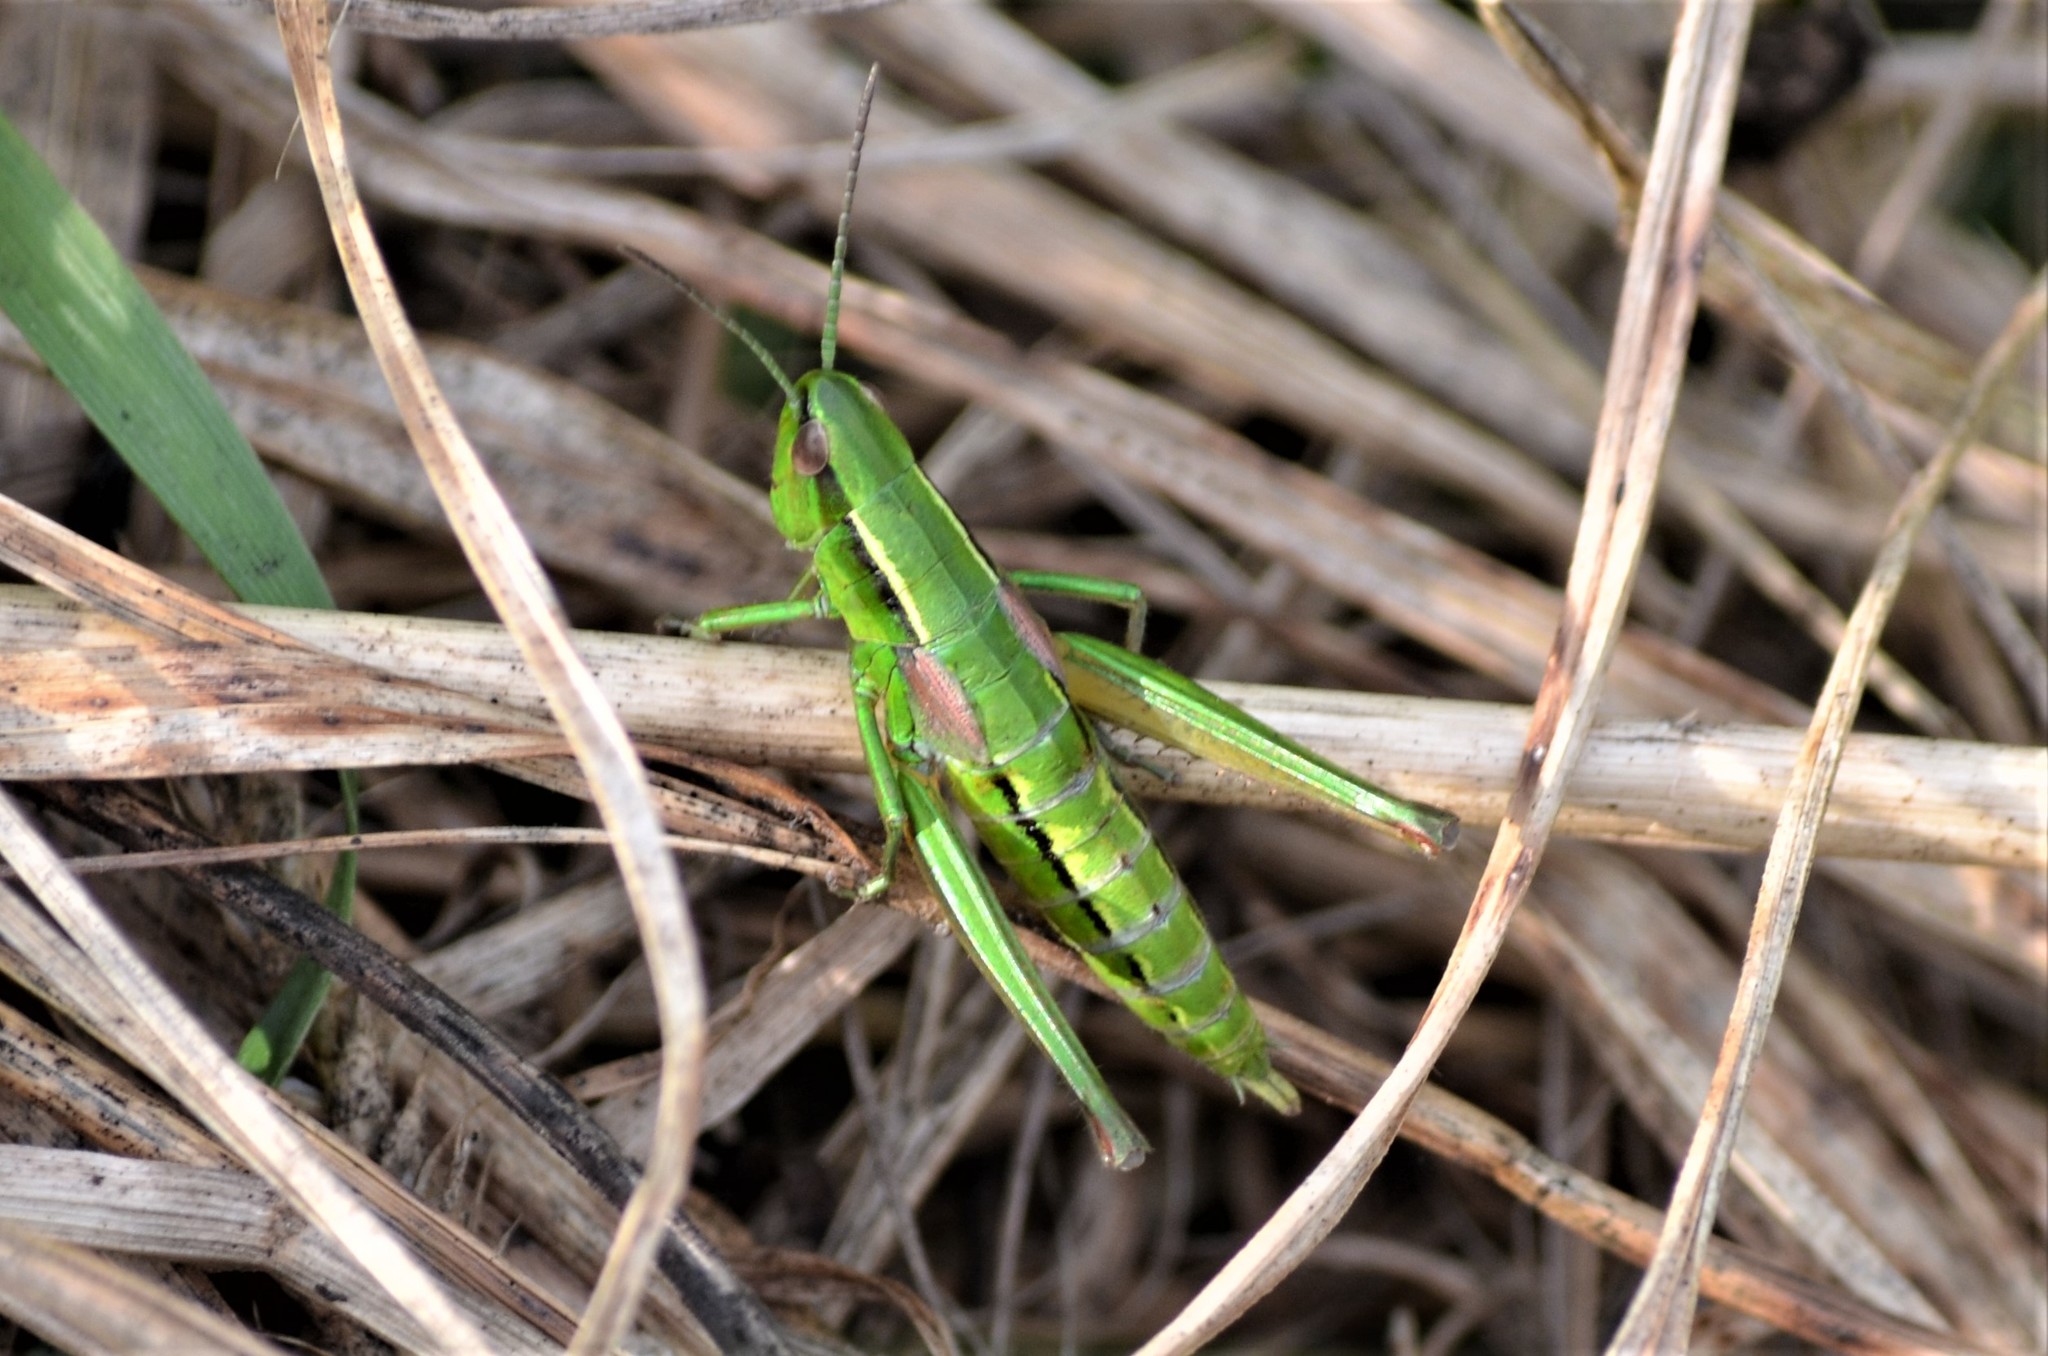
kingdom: Animalia
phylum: Arthropoda
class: Insecta
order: Orthoptera
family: Acrididae
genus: Euthystira
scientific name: Euthystira brachyptera
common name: Small gold grasshopper
